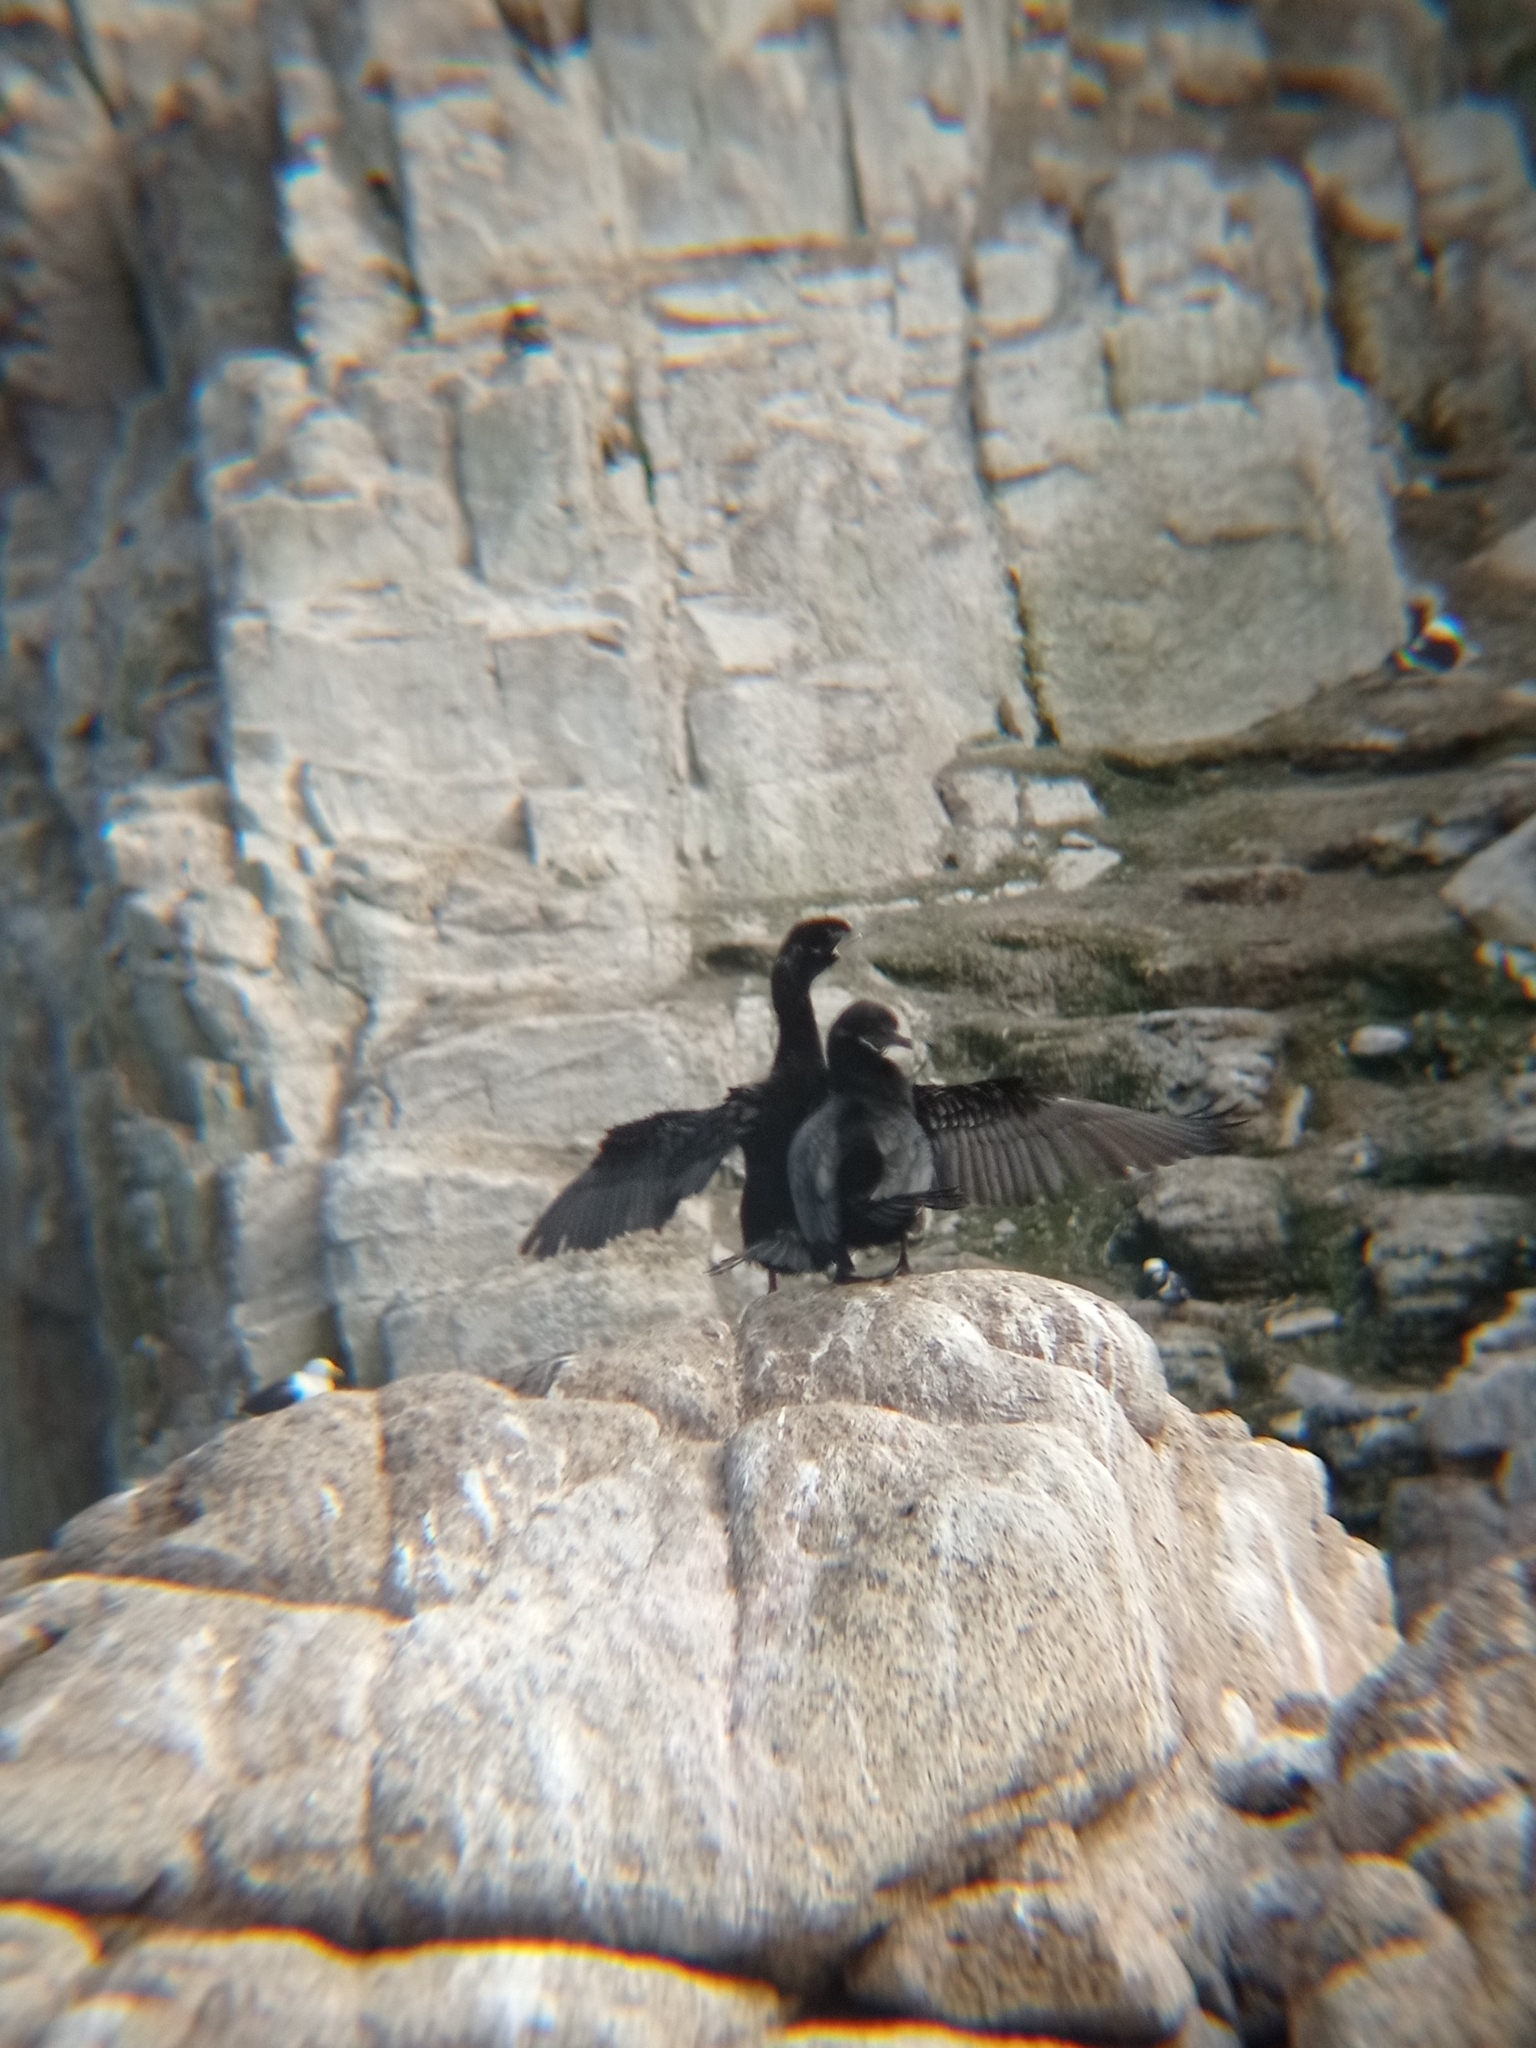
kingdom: Animalia
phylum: Chordata
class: Aves
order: Suliformes
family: Phalacrocoracidae
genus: Phalacrocorax
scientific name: Phalacrocorax brasilianus
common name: Neotropic cormorant
